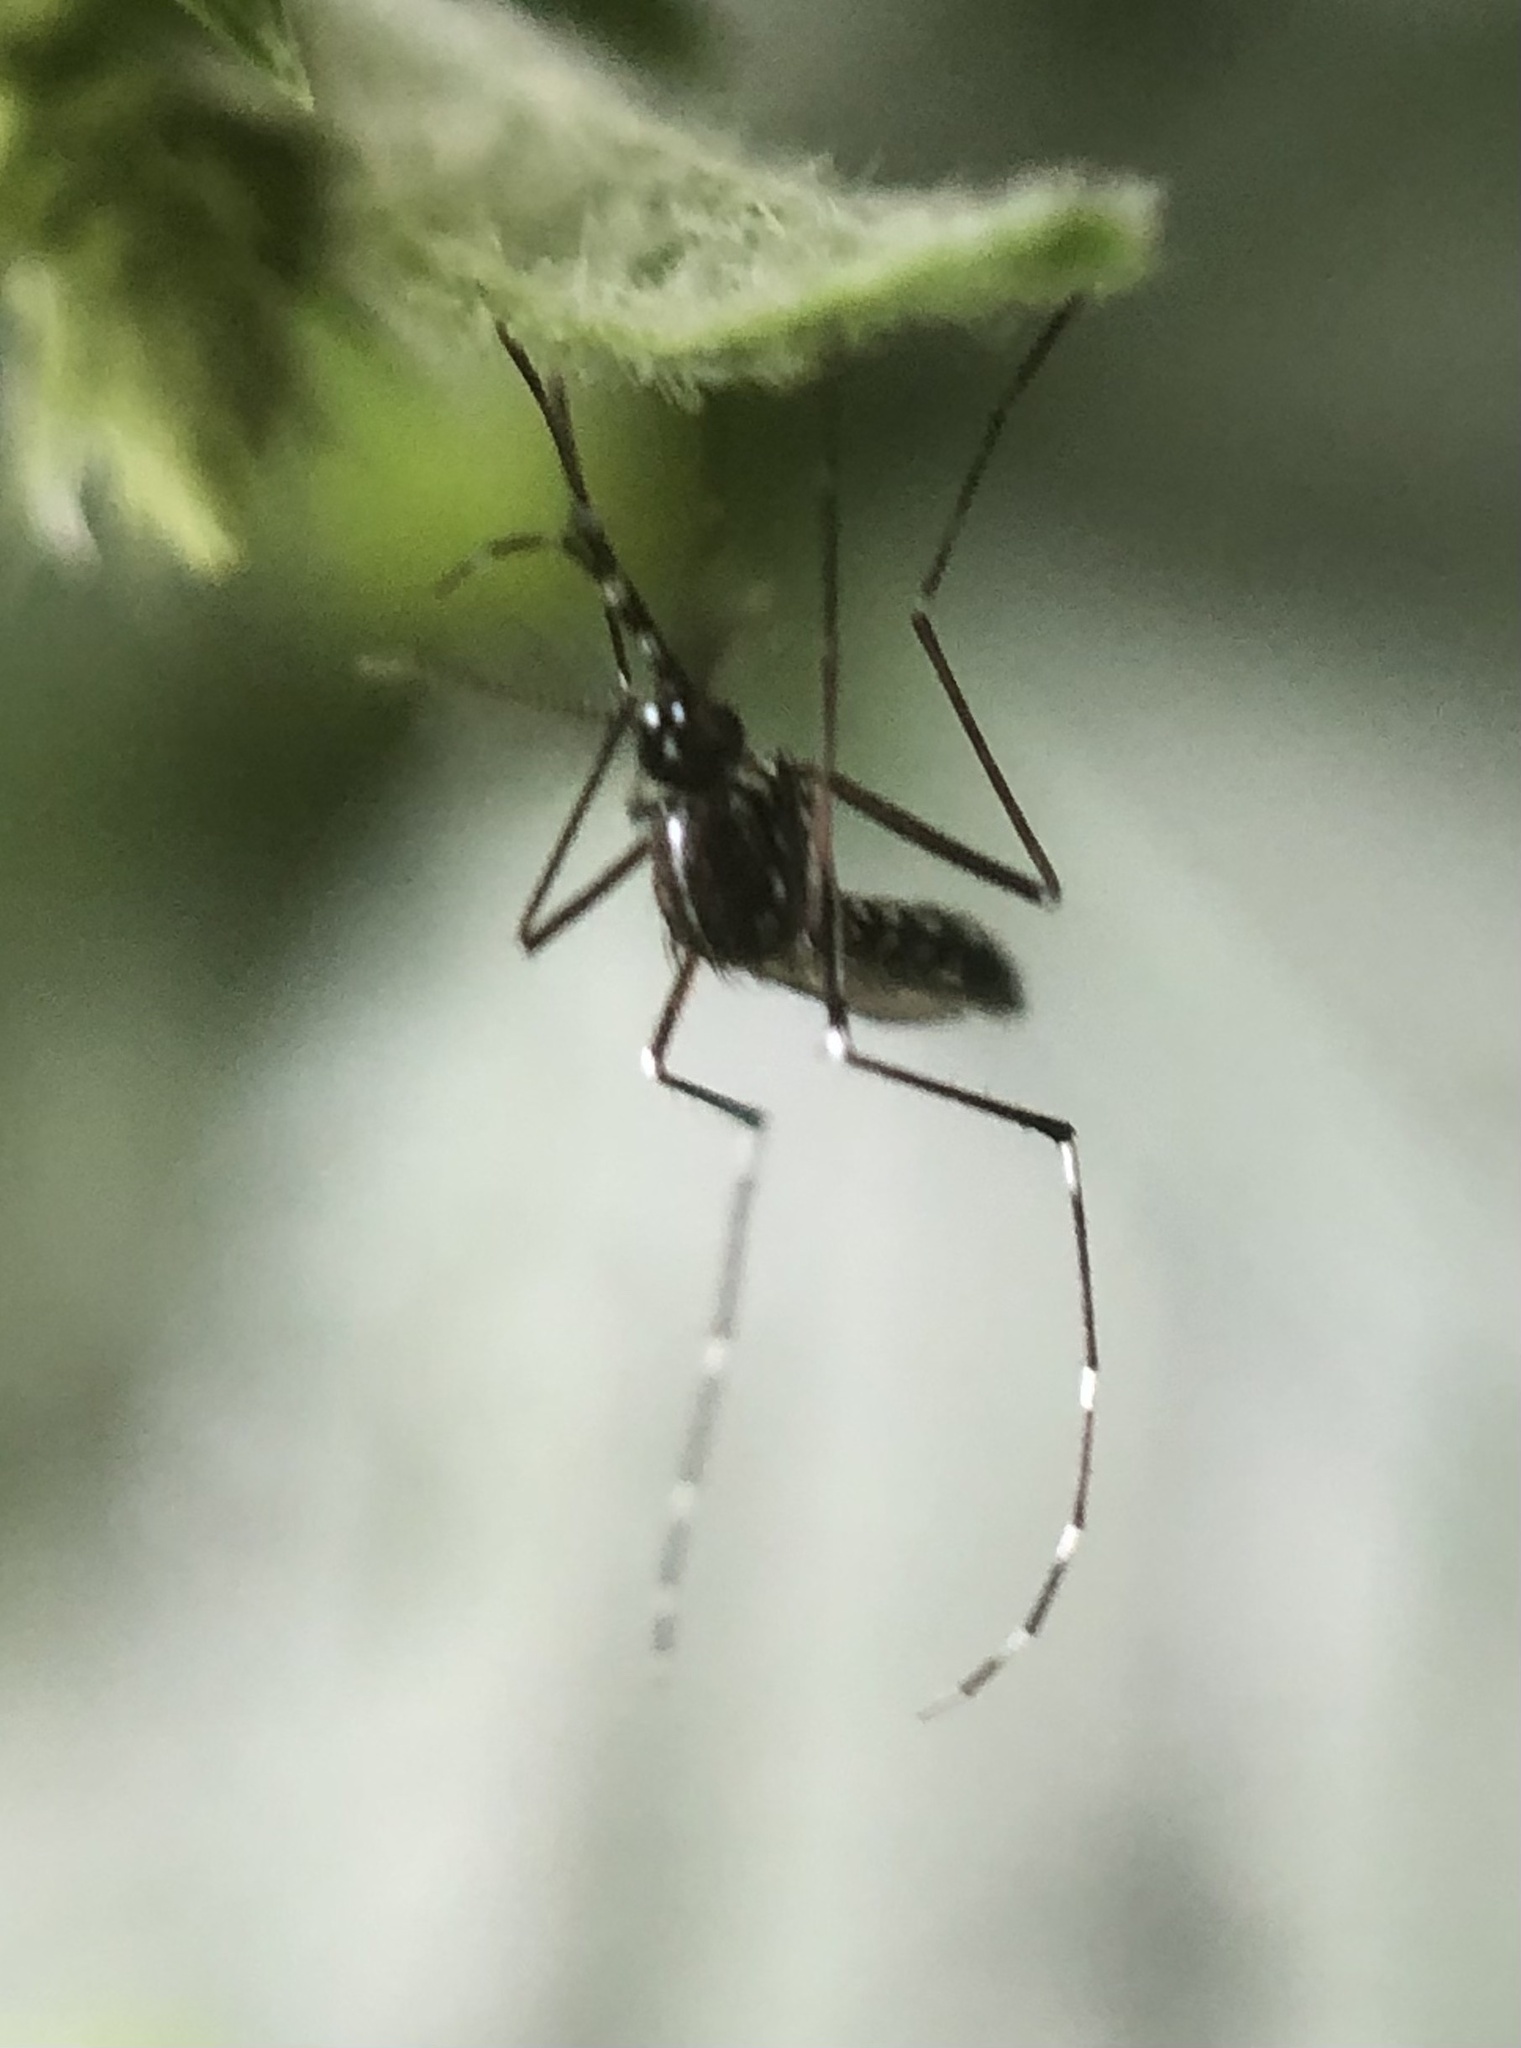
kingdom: Animalia
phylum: Arthropoda
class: Insecta
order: Diptera
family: Culicidae
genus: Aedes
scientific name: Aedes albopictus
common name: Tiger mosquito
